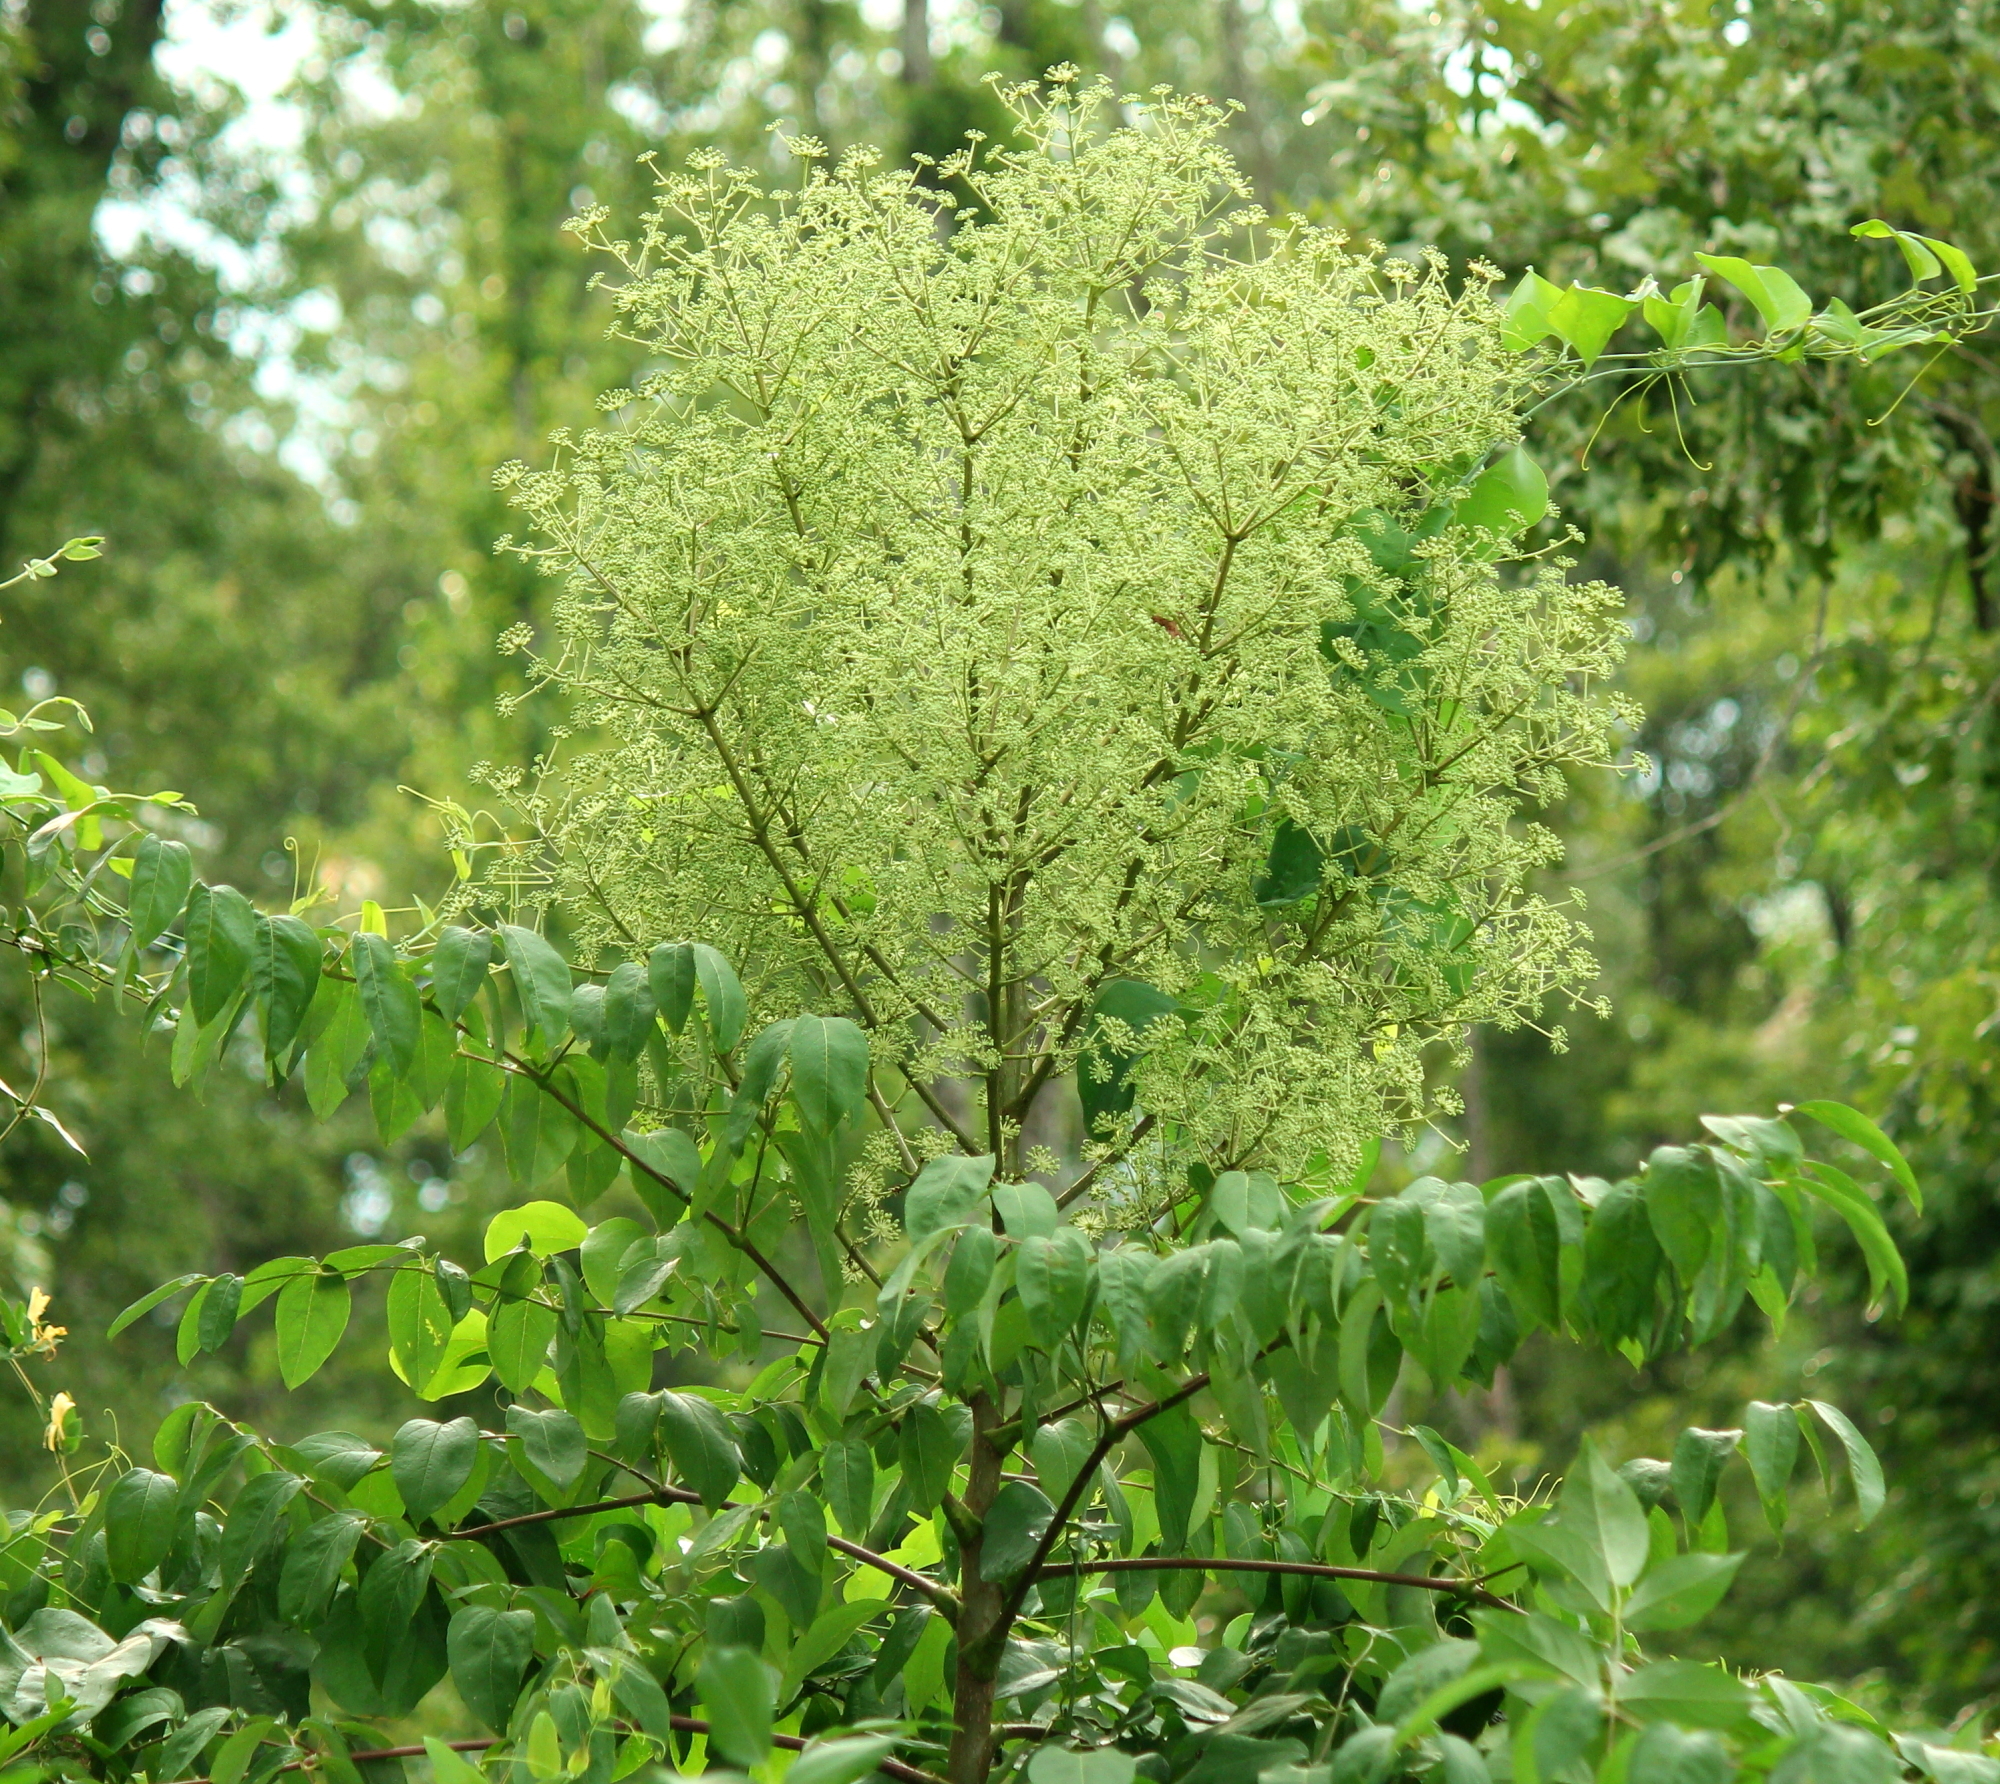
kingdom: Plantae
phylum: Tracheophyta
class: Magnoliopsida
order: Apiales
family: Araliaceae
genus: Aralia
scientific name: Aralia spinosa
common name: Hercules'-club
